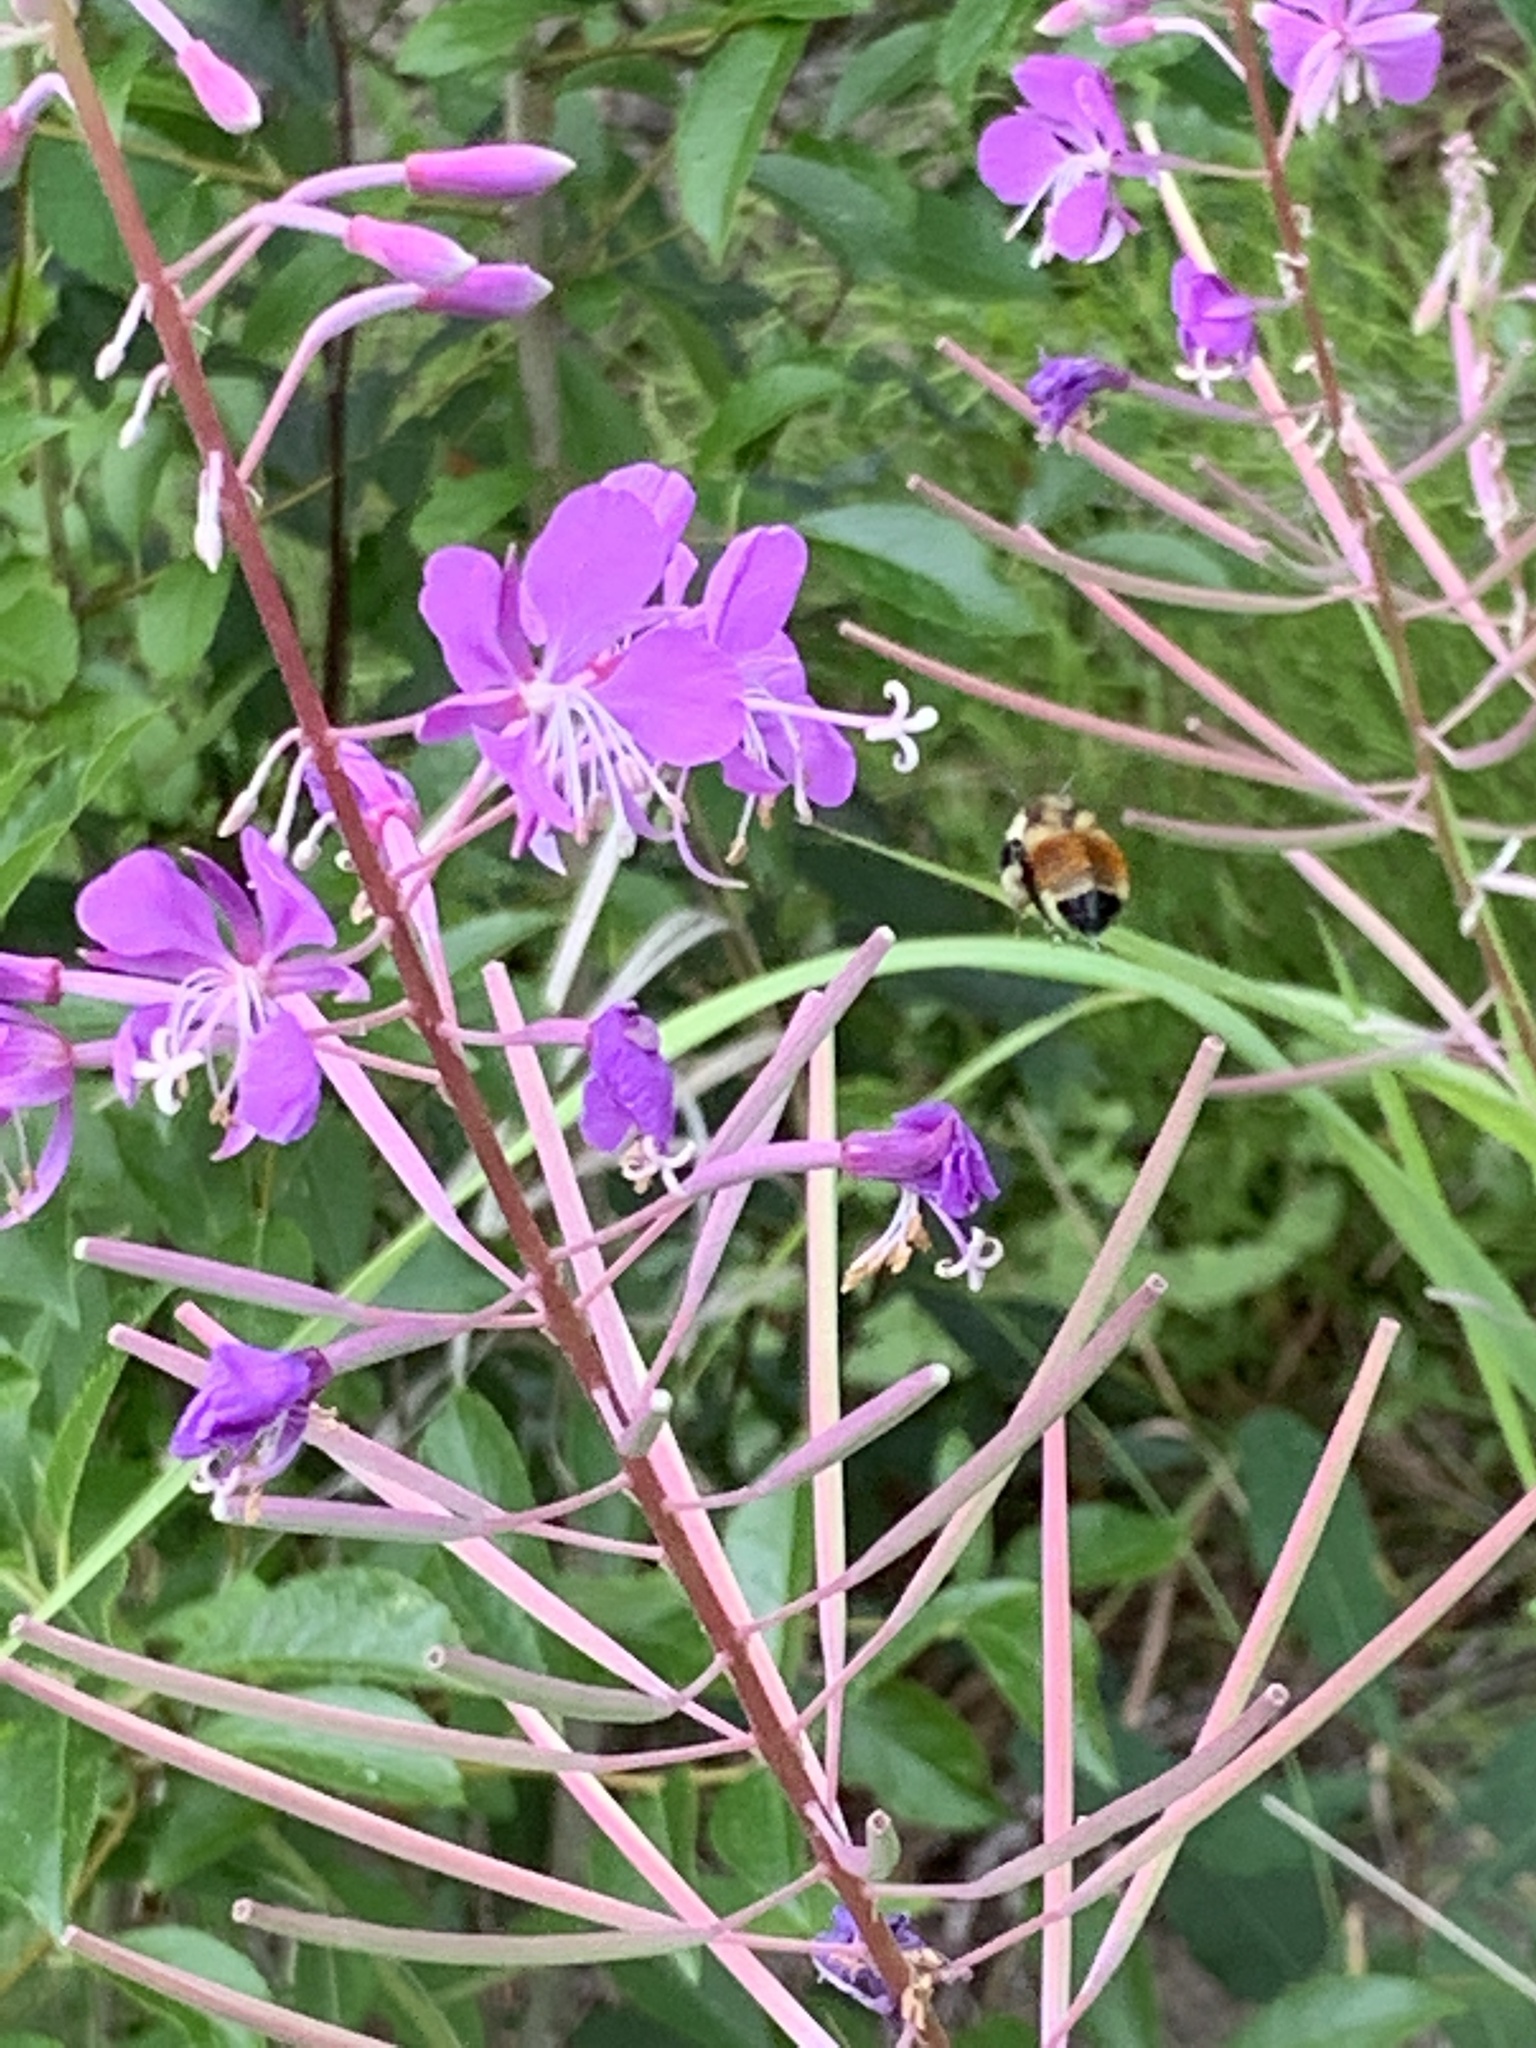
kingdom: Animalia
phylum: Arthropoda
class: Insecta
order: Hymenoptera
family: Apidae
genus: Bombus
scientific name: Bombus ternarius
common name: Tri-colored bumble bee
